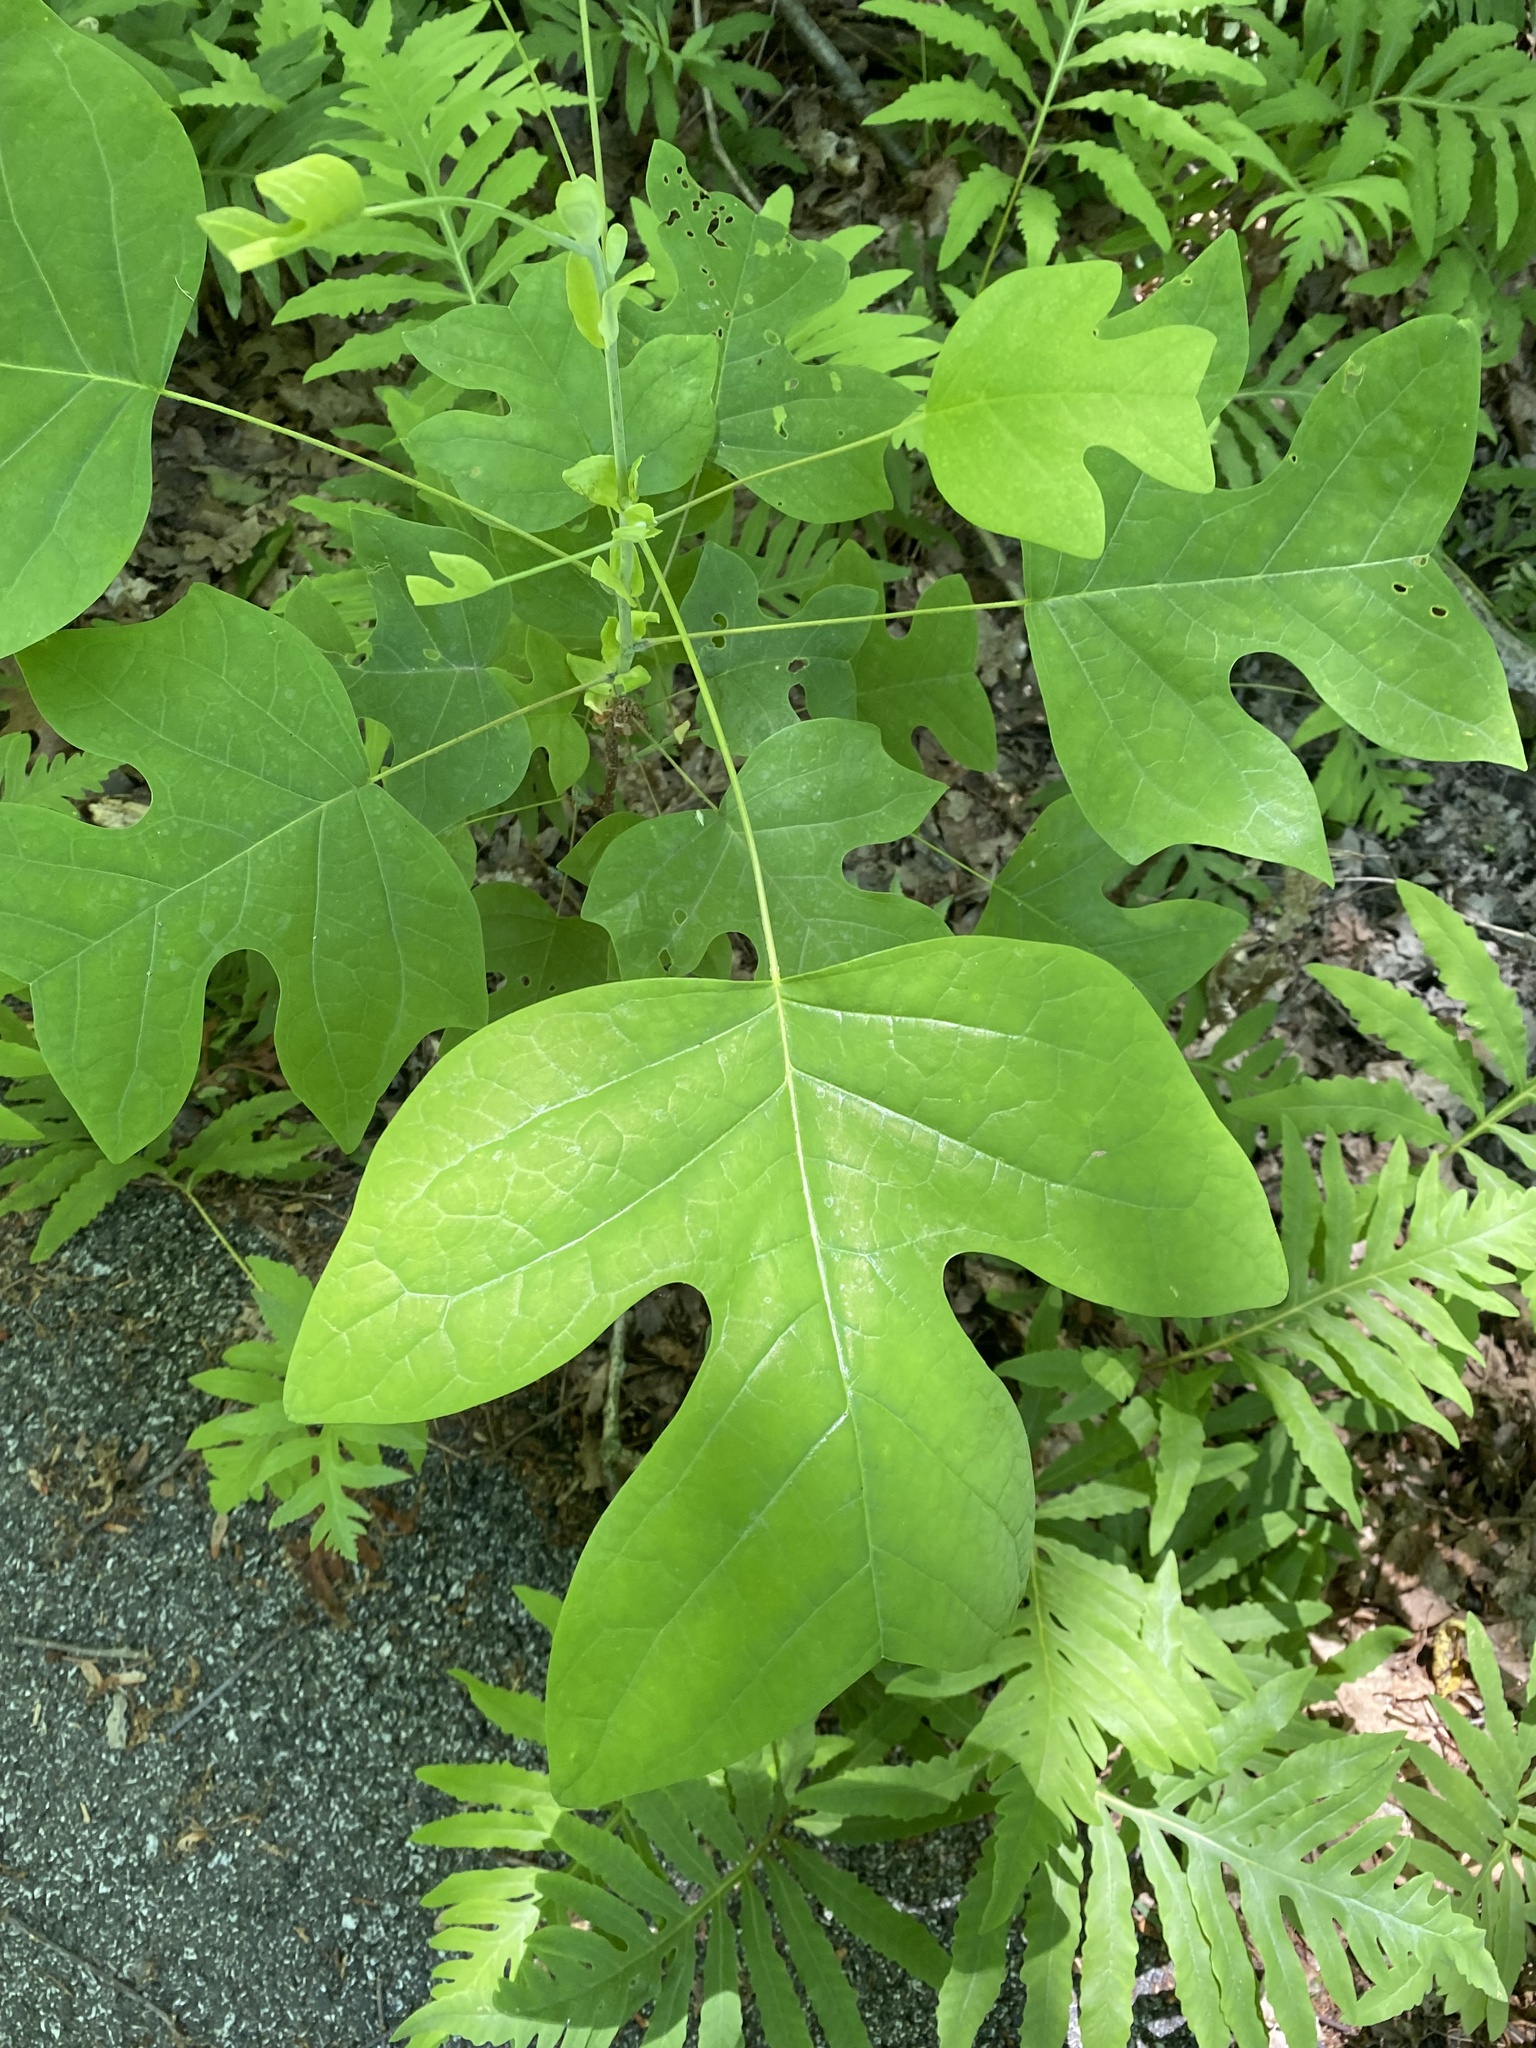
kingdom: Plantae
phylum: Tracheophyta
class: Magnoliopsida
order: Magnoliales
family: Magnoliaceae
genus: Liriodendron
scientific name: Liriodendron tulipifera
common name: Tulip tree
